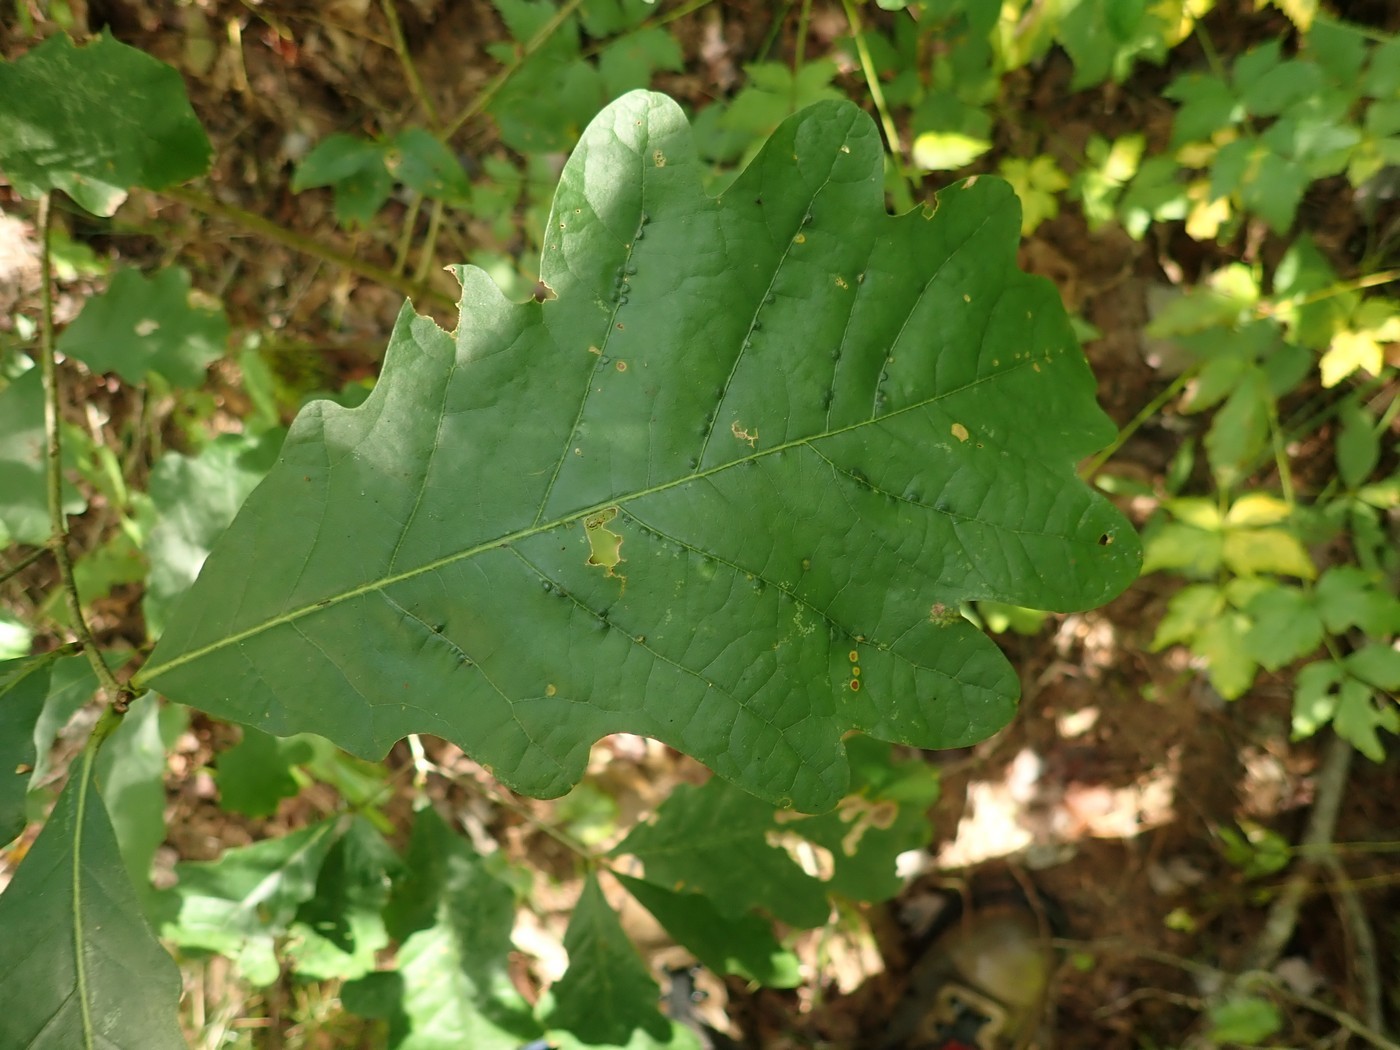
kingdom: Animalia
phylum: Arthropoda
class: Insecta
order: Hymenoptera
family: Cynipidae
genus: Disholcaspis
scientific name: Disholcaspis quercusglobulus
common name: Round bullet gall wasp
